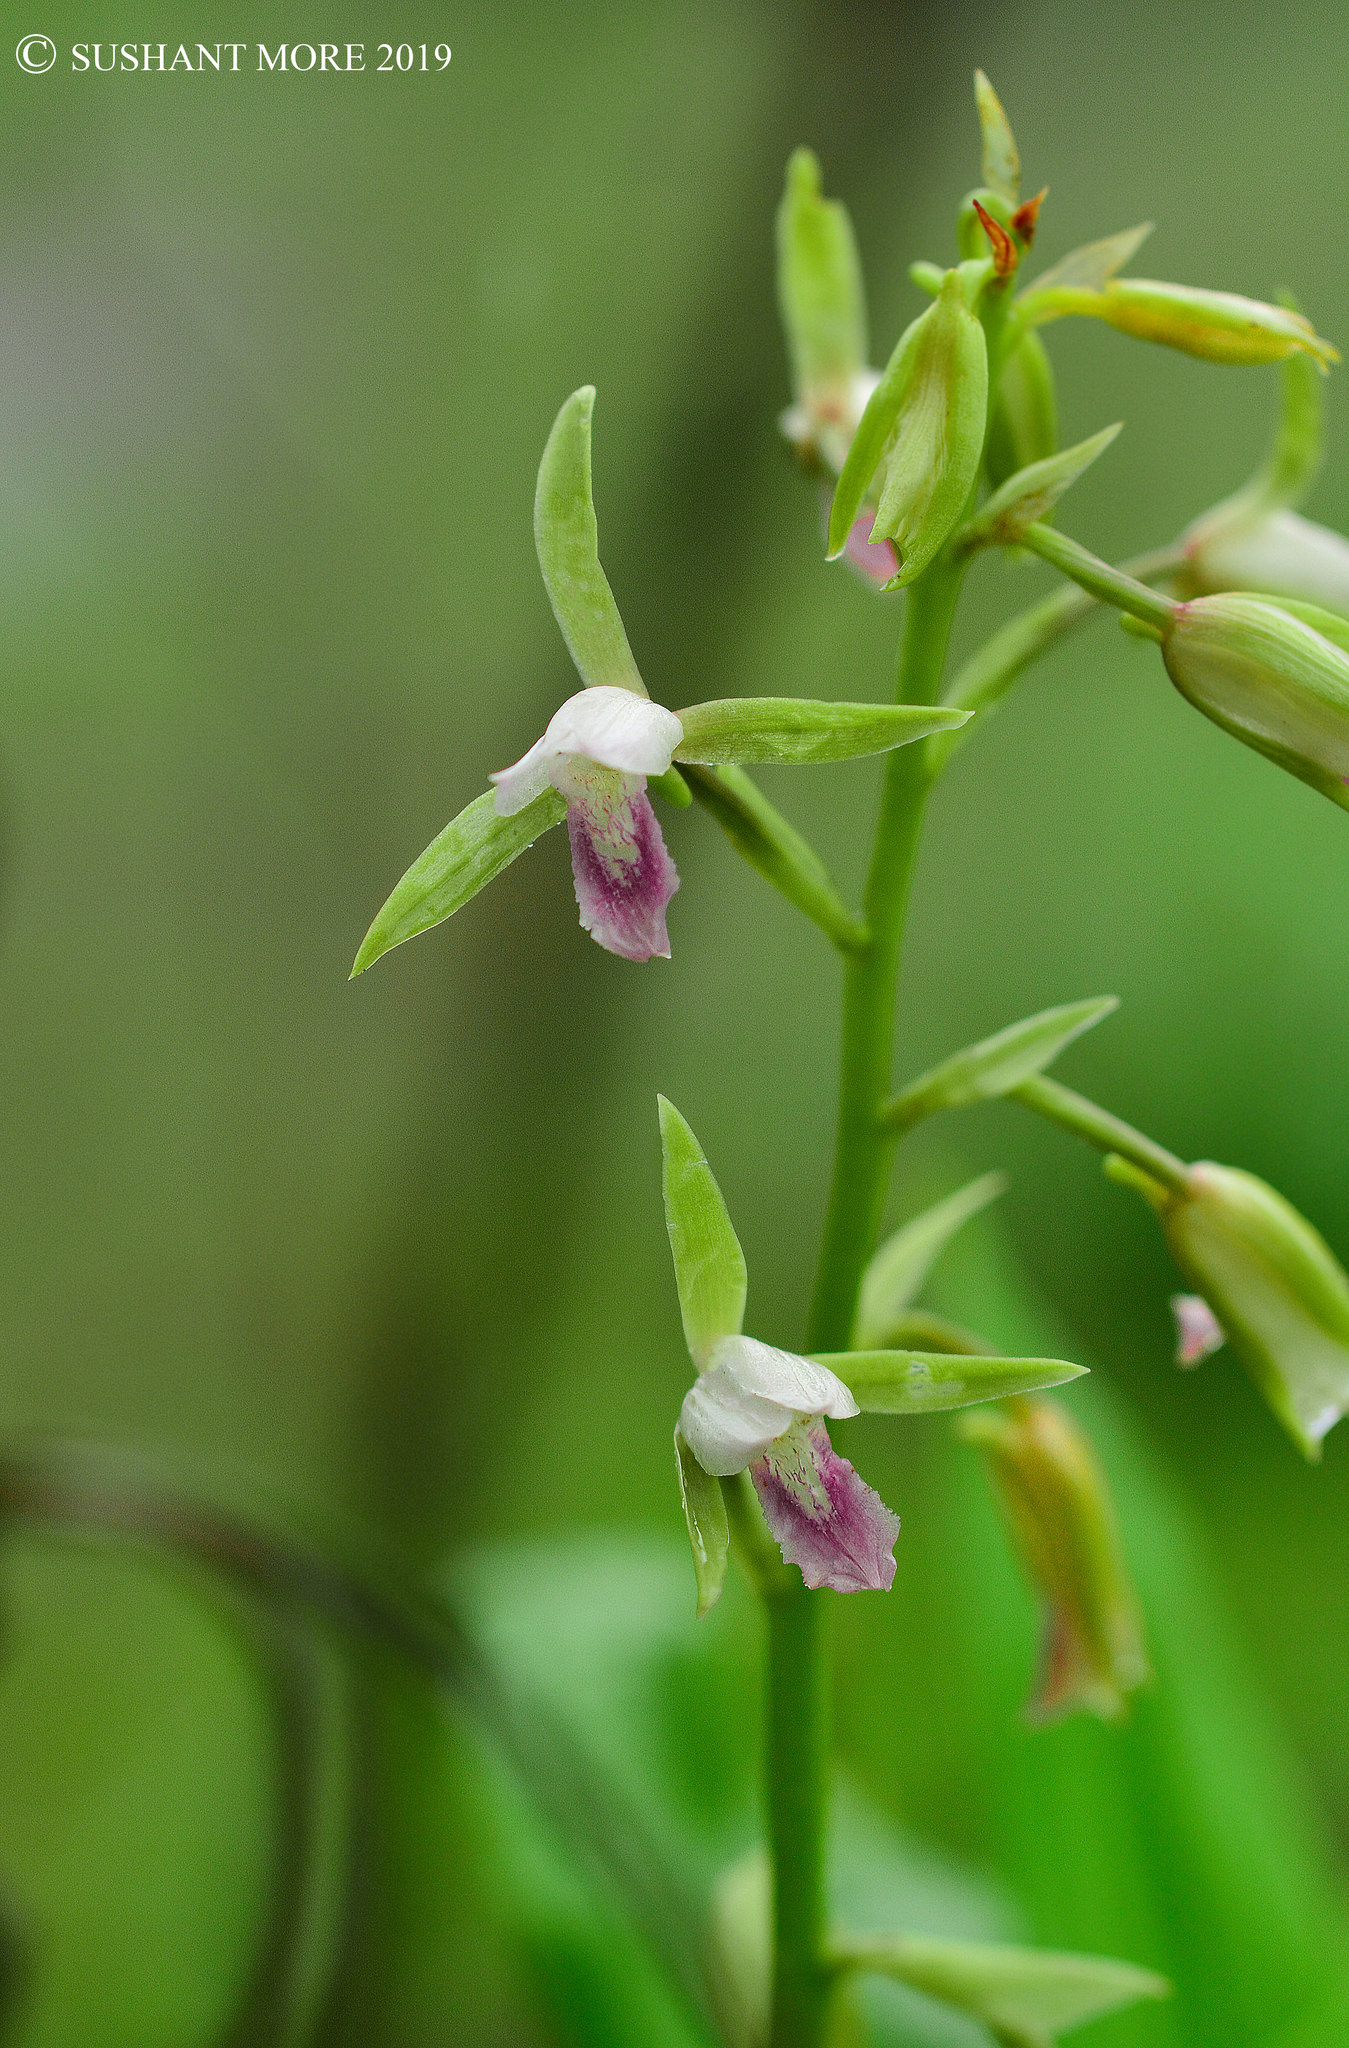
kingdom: Plantae
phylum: Tracheophyta
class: Liliopsida
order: Asparagales
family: Orchidaceae
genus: Eulophia
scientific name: Eulophia herbacea
